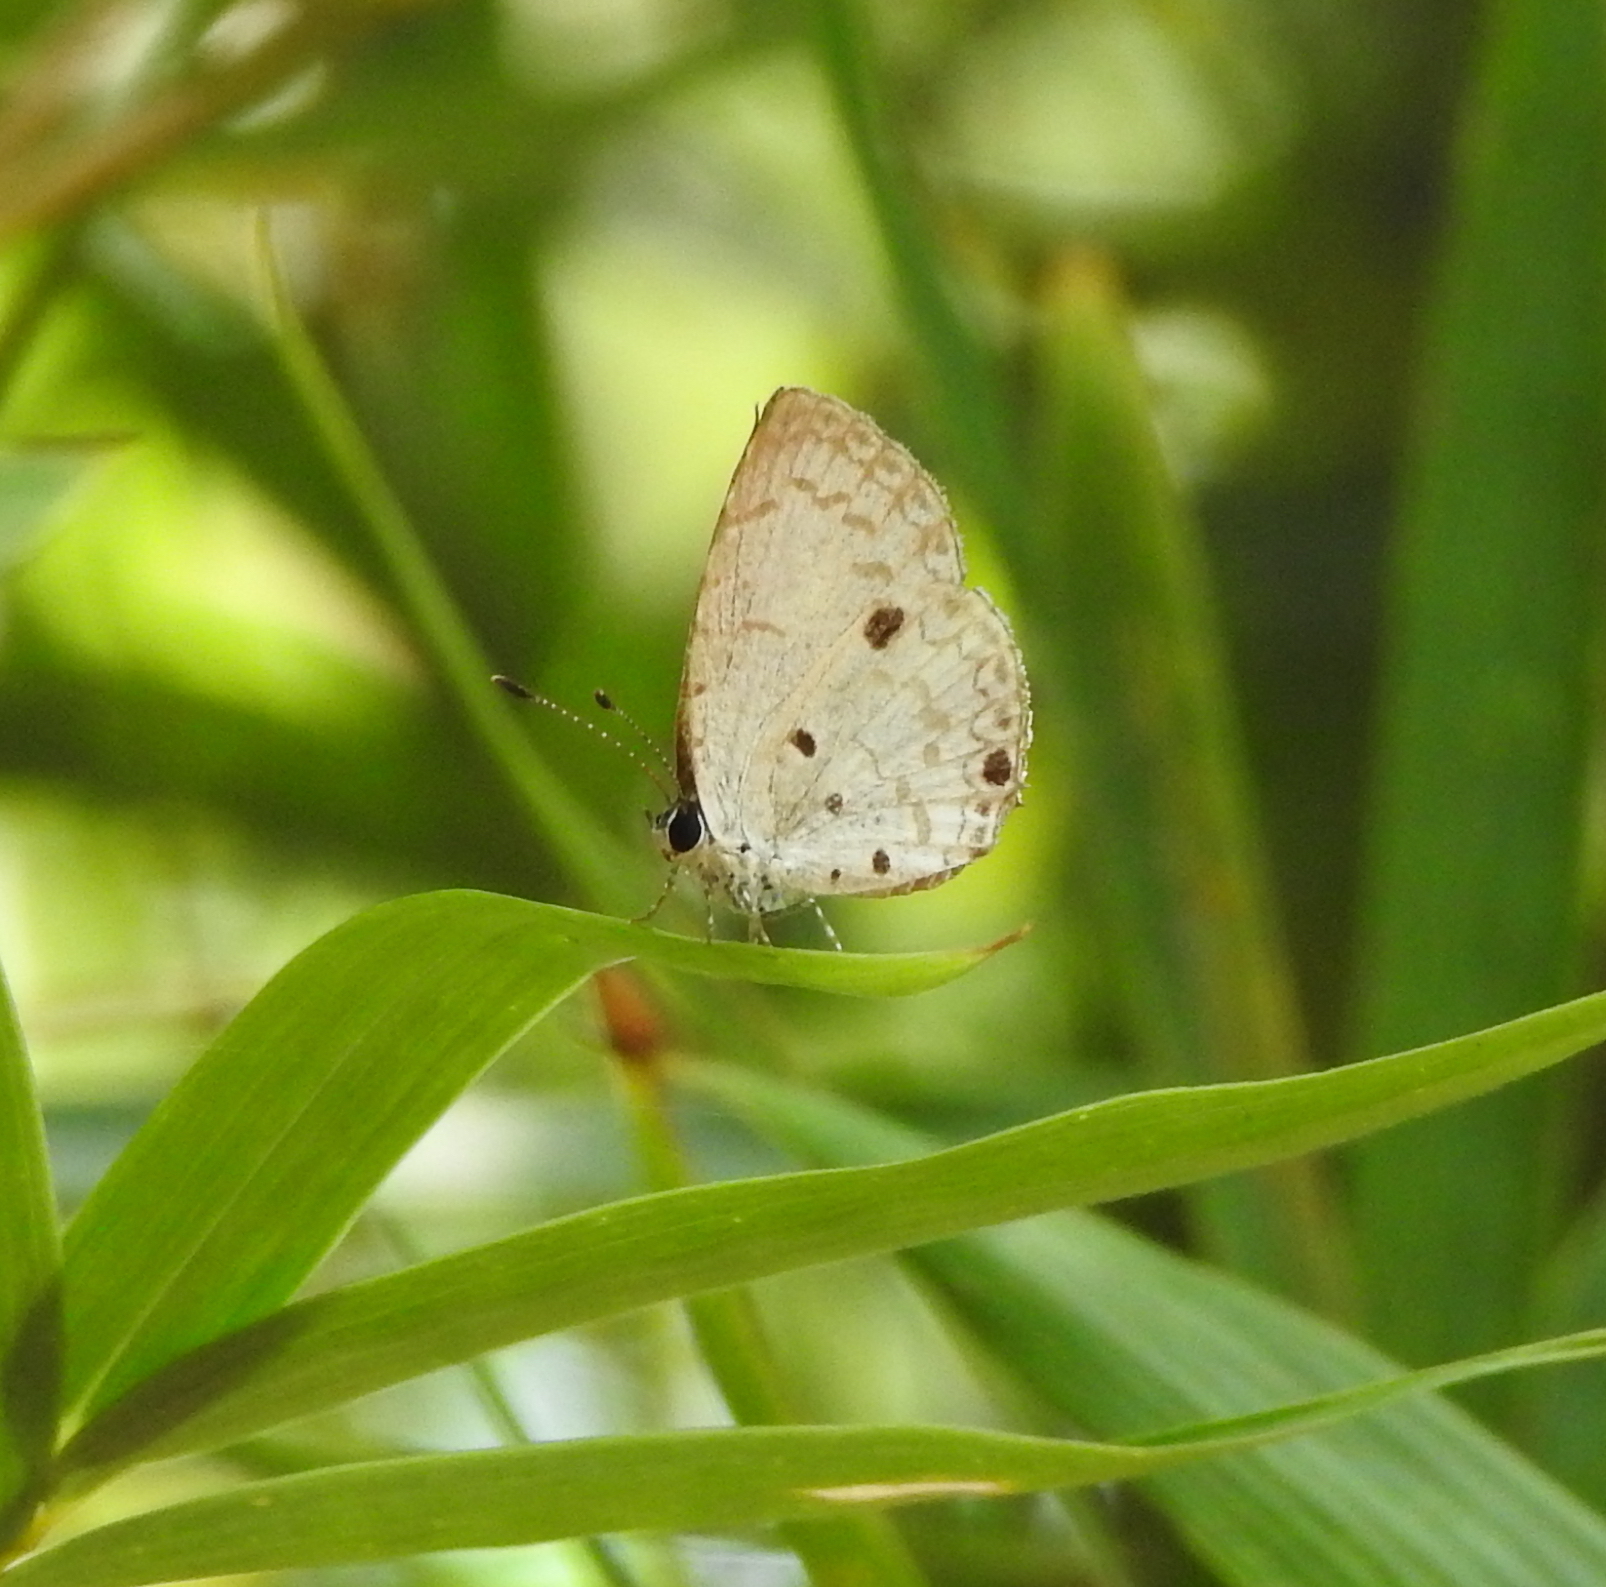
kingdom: Animalia
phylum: Arthropoda
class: Insecta
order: Lepidoptera
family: Lycaenidae
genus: Megisba
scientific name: Megisba malaya
